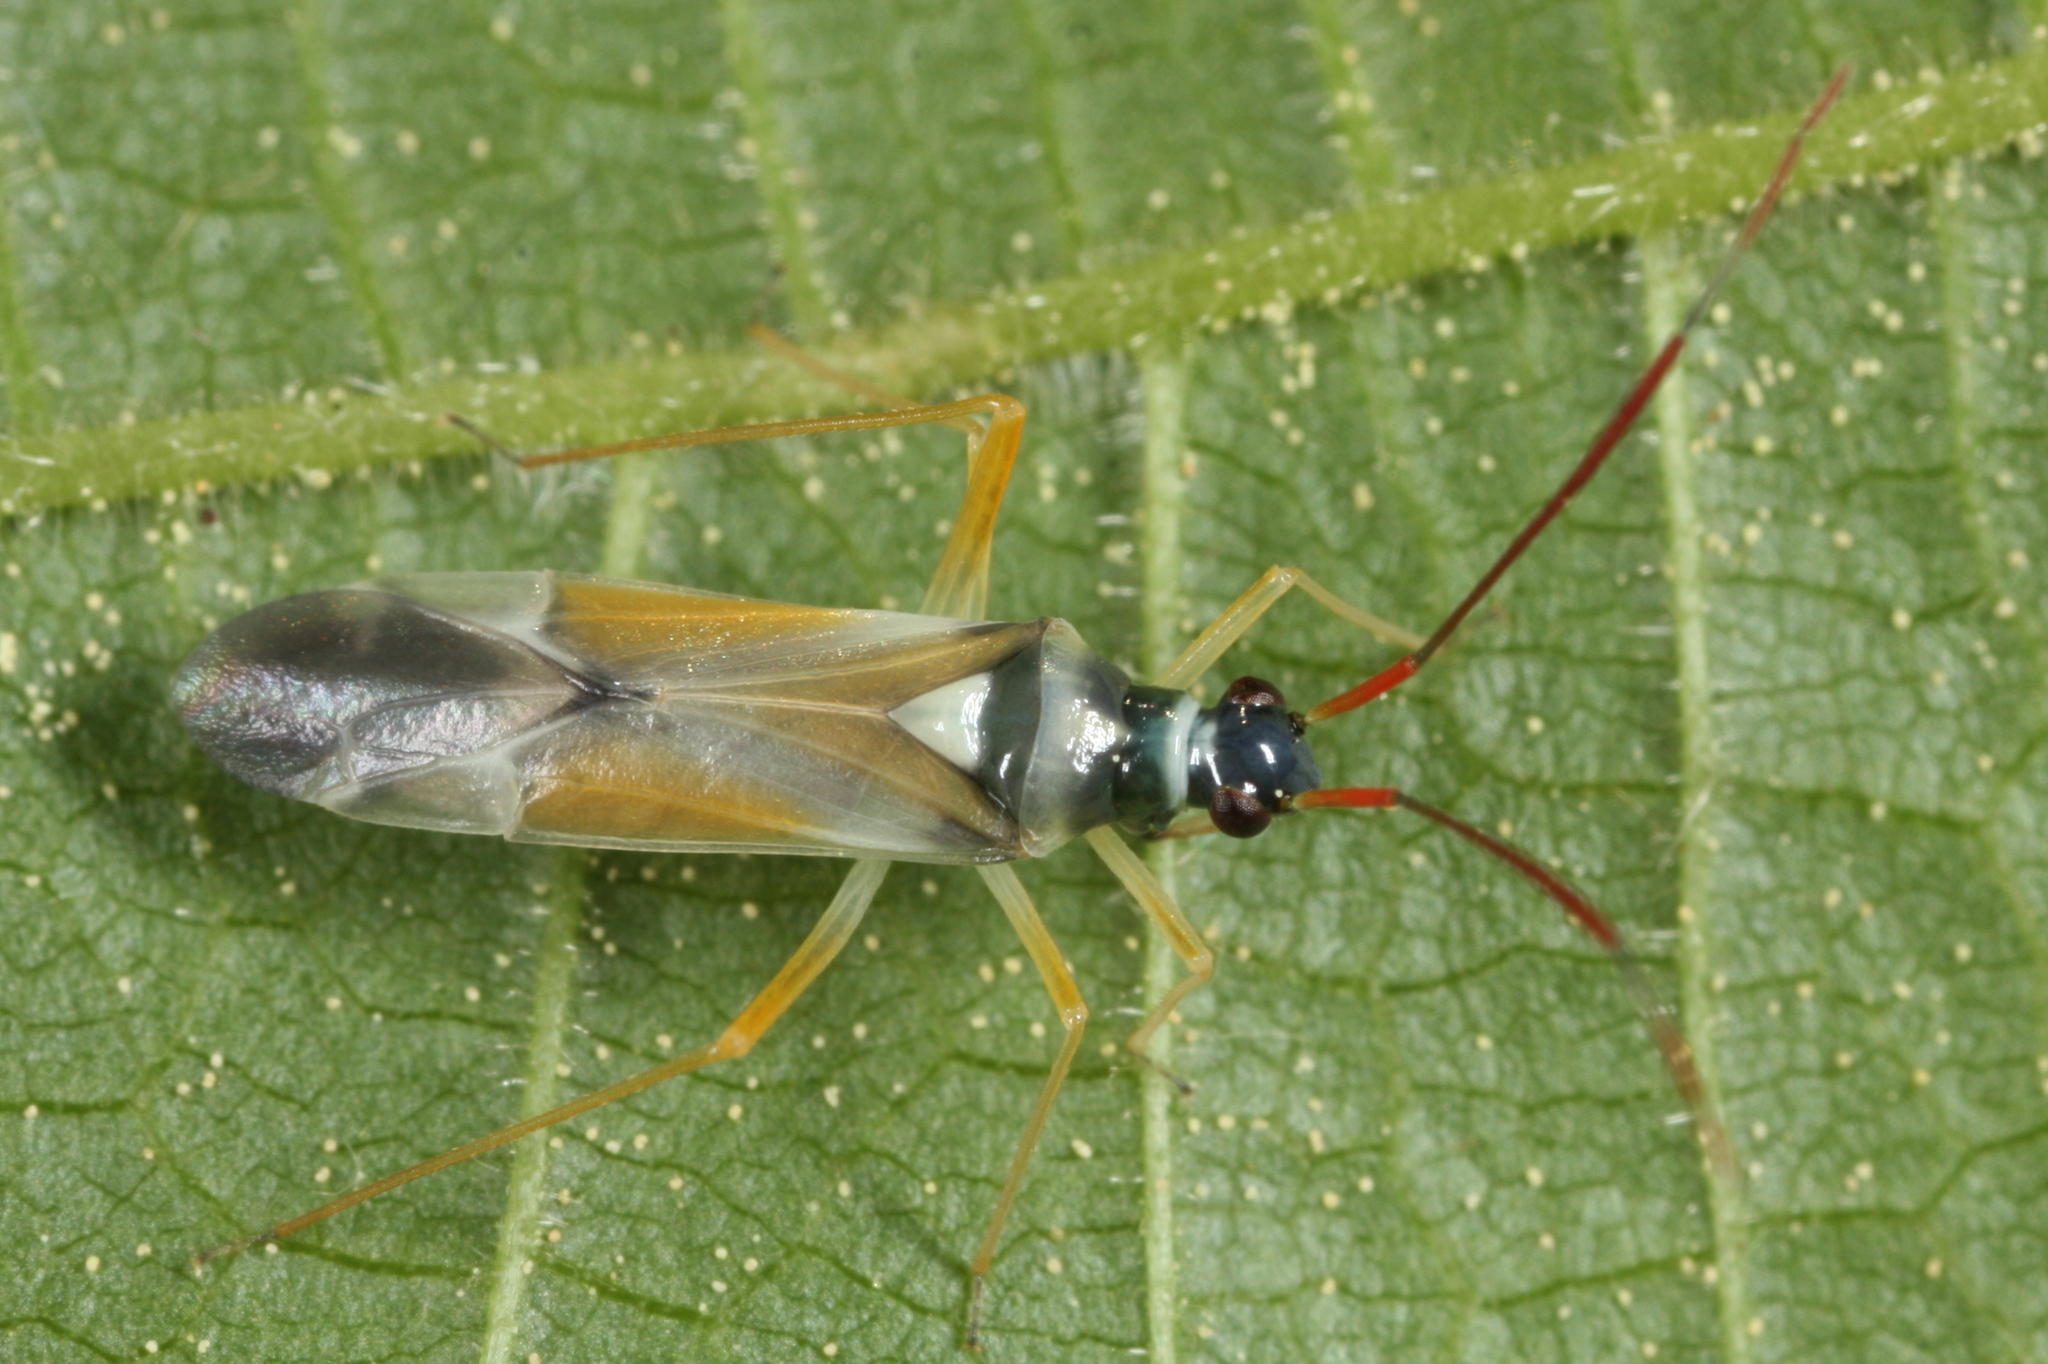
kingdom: Animalia
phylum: Arthropoda
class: Insecta
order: Hemiptera
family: Miridae
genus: Cyllecoris
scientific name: Cyllecoris histrionius
